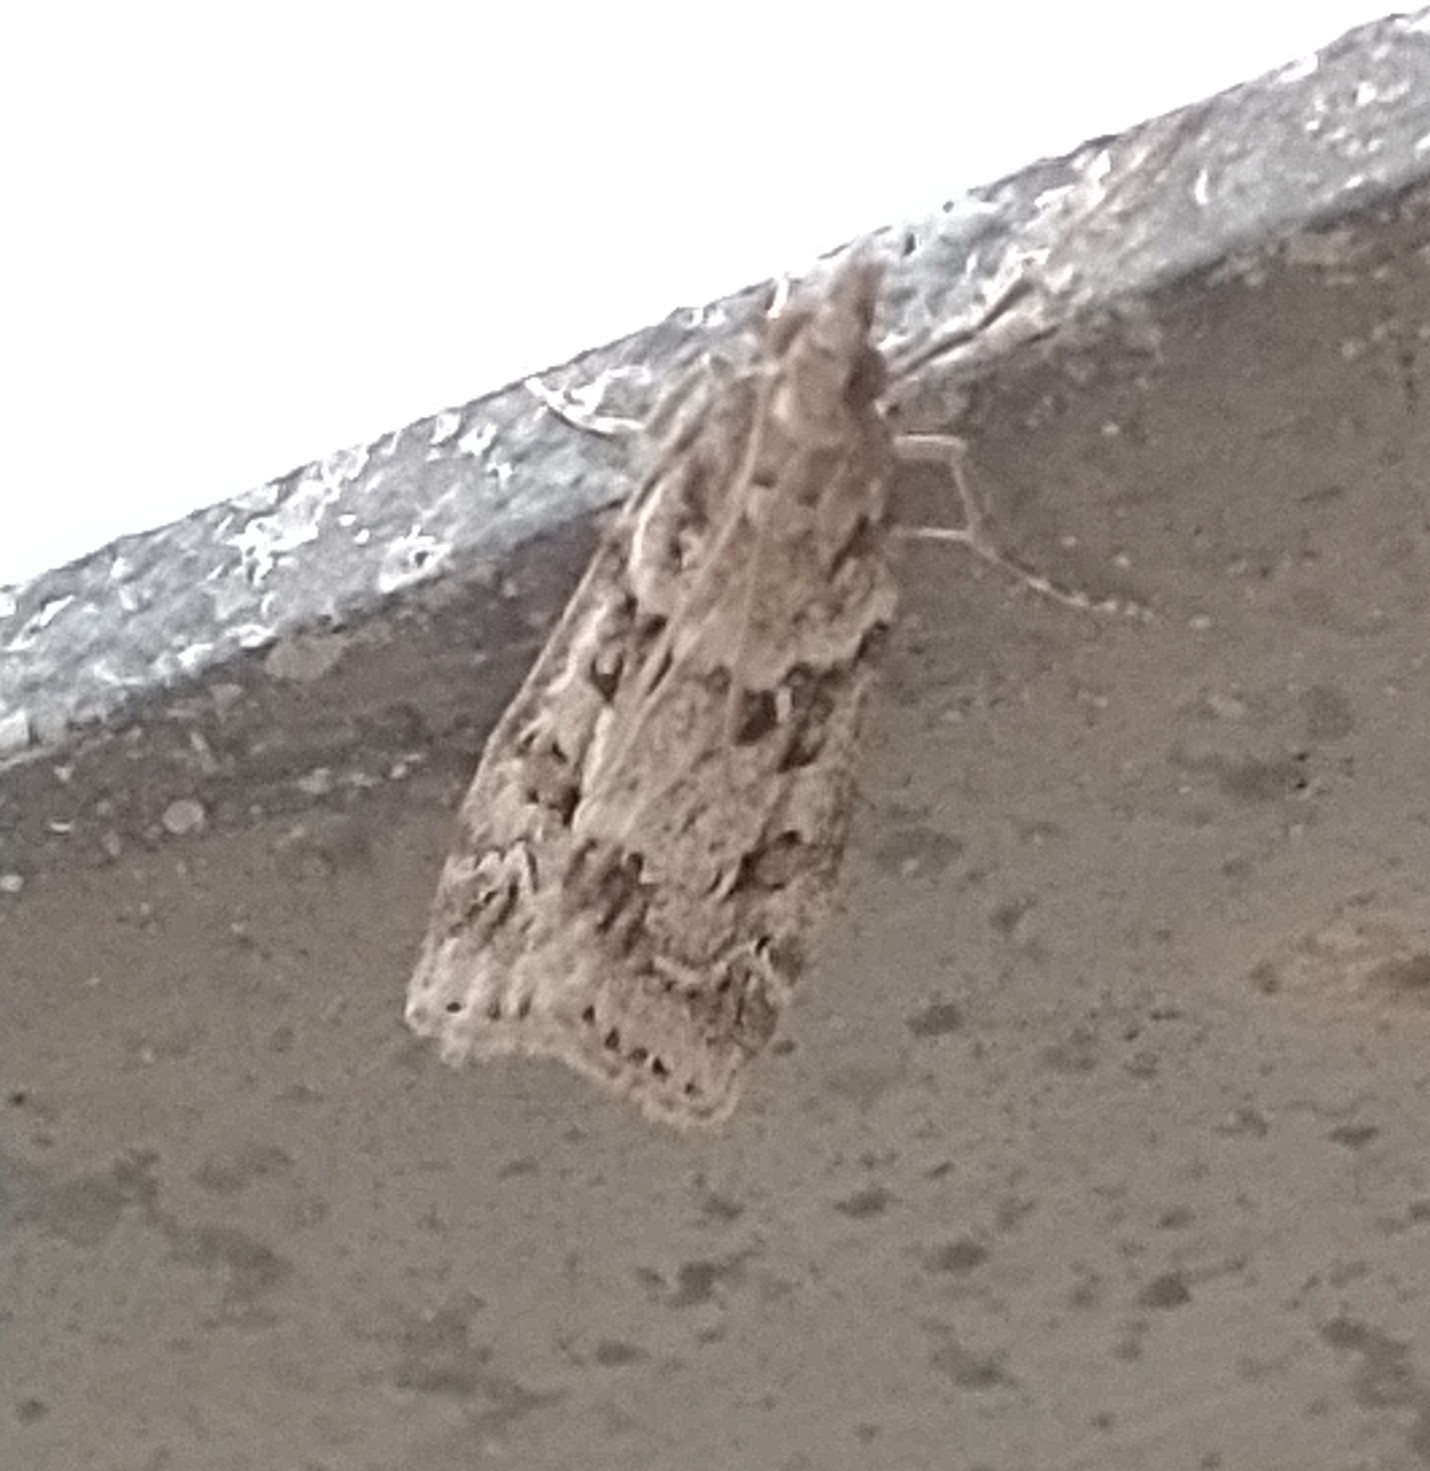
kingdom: Animalia
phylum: Arthropoda
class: Insecta
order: Lepidoptera
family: Crambidae
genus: Eudonia
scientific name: Eudonia angustea
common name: Narrow-winged grey
